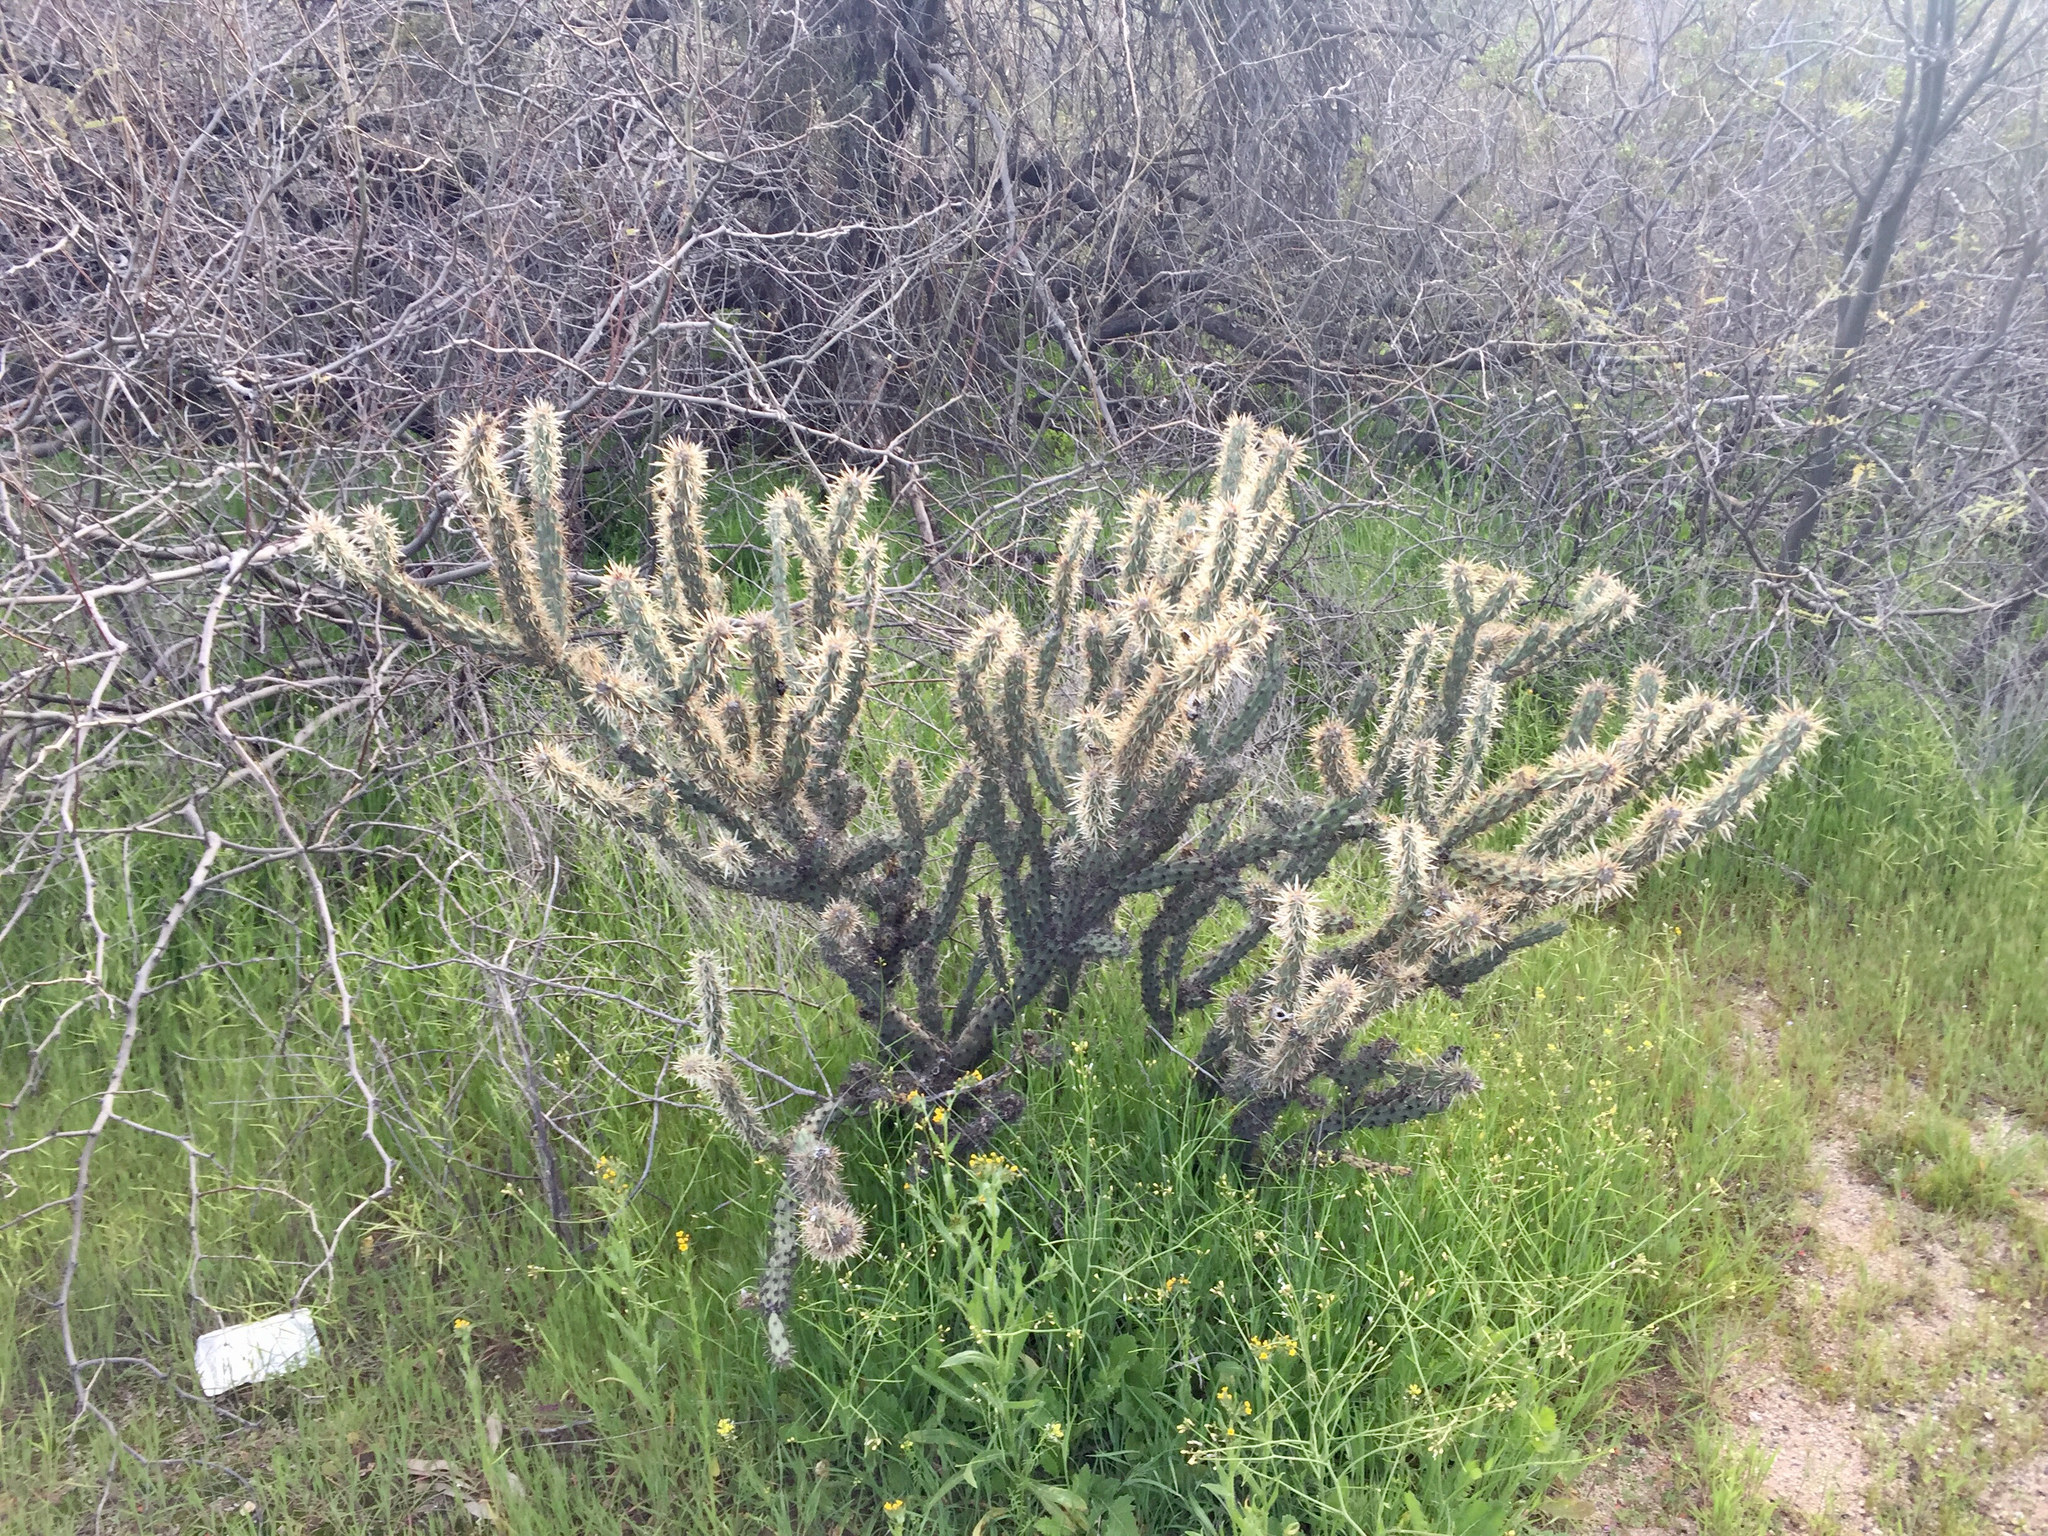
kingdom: Plantae
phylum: Tracheophyta
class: Magnoliopsida
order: Caryophyllales
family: Cactaceae
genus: Cylindropuntia
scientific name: Cylindropuntia acanthocarpa
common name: Buckhorn cholla
